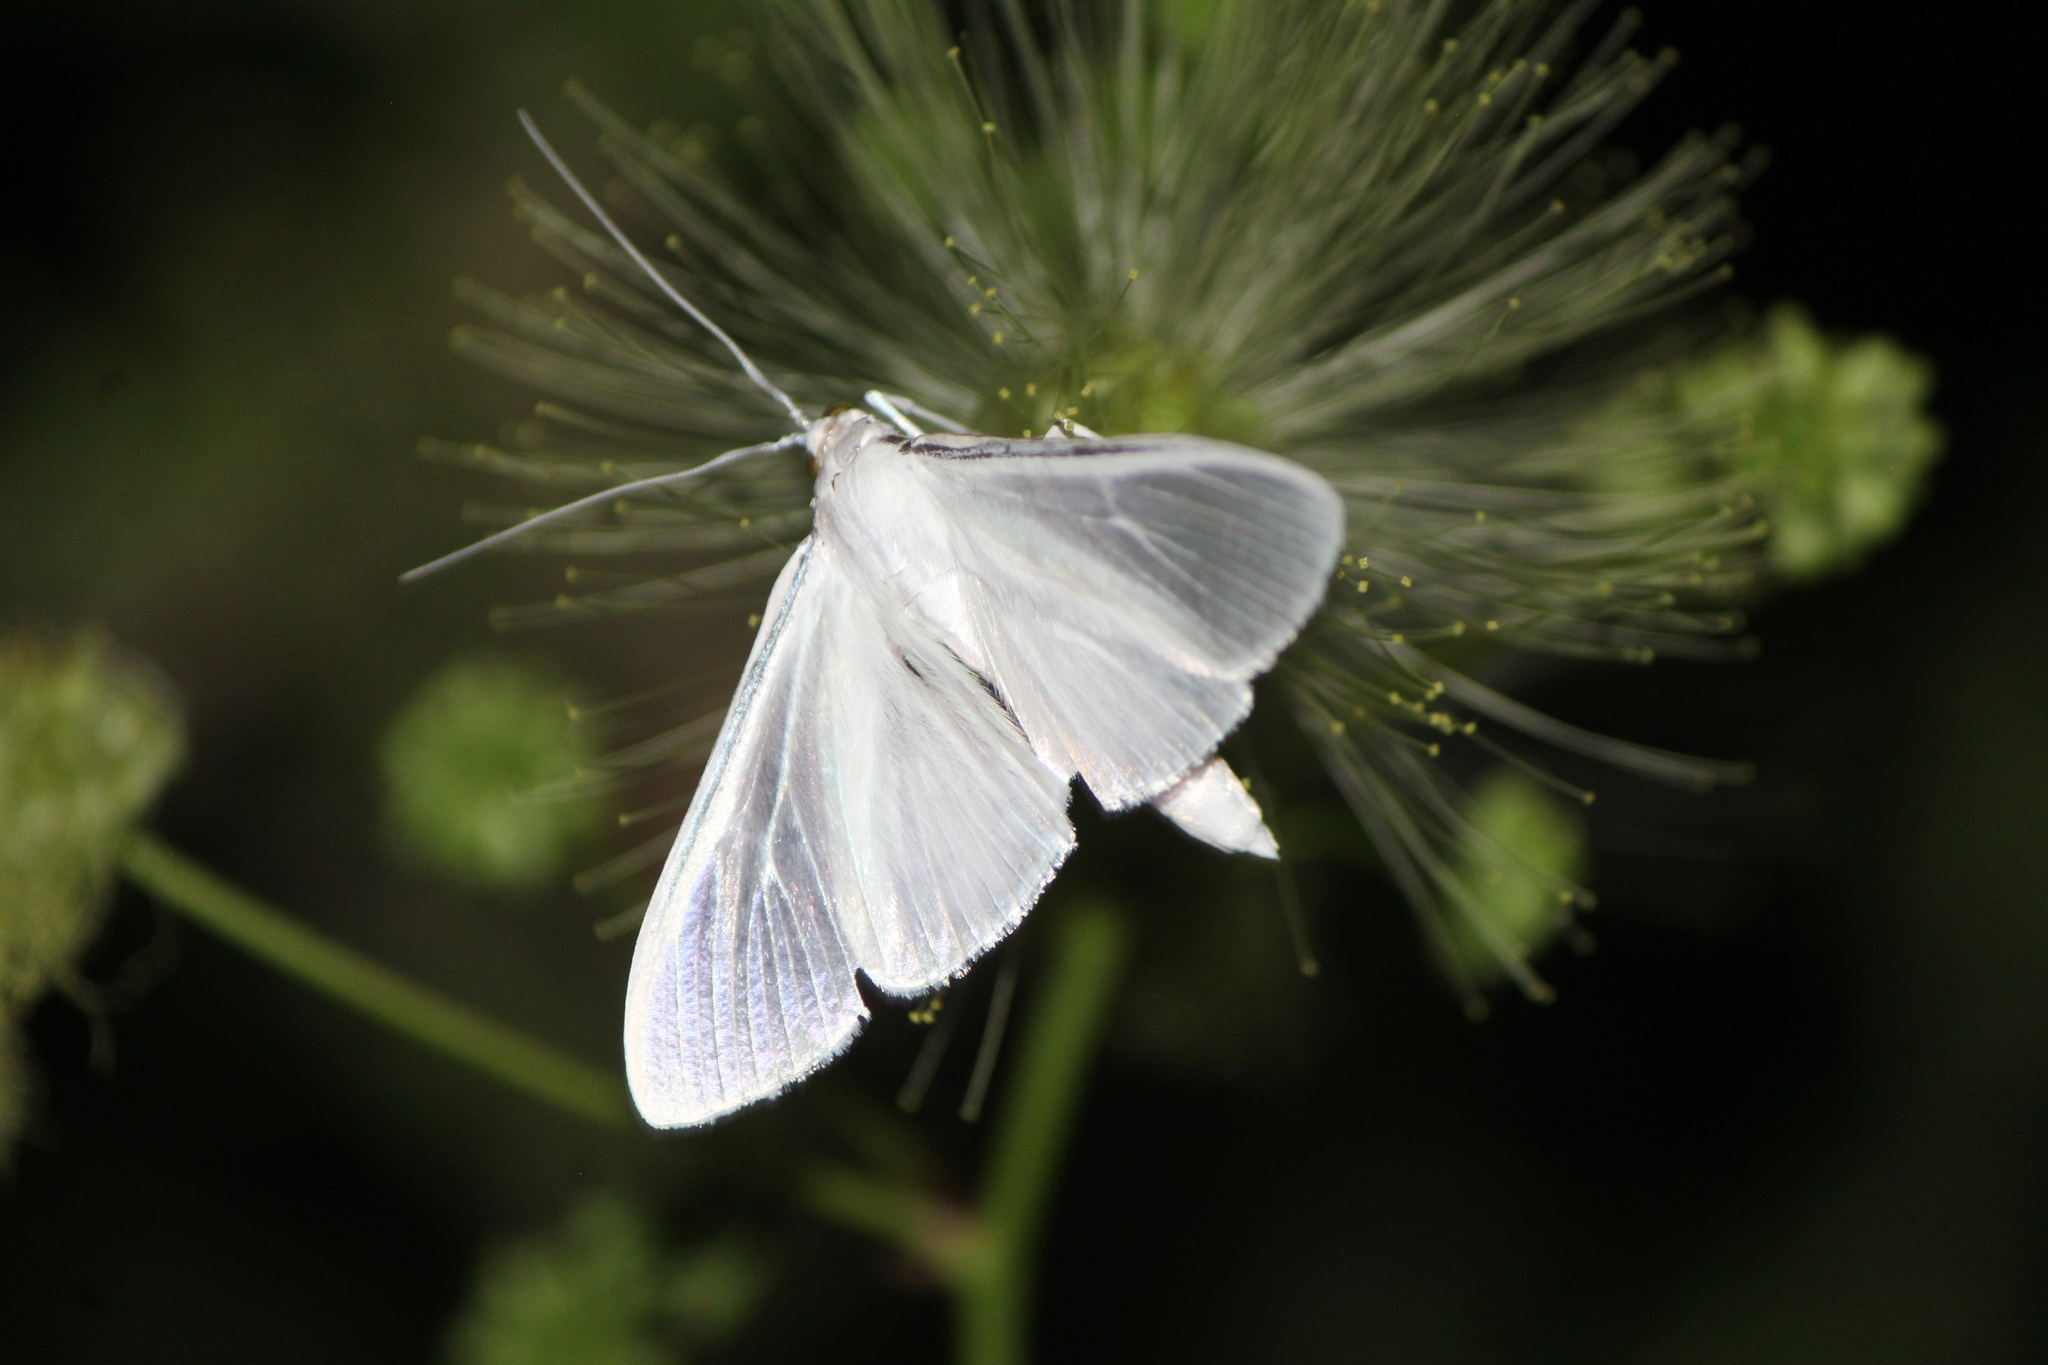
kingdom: Animalia
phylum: Arthropoda
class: Insecta
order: Lepidoptera
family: Crambidae
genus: Palpita
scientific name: Palpita flegia
